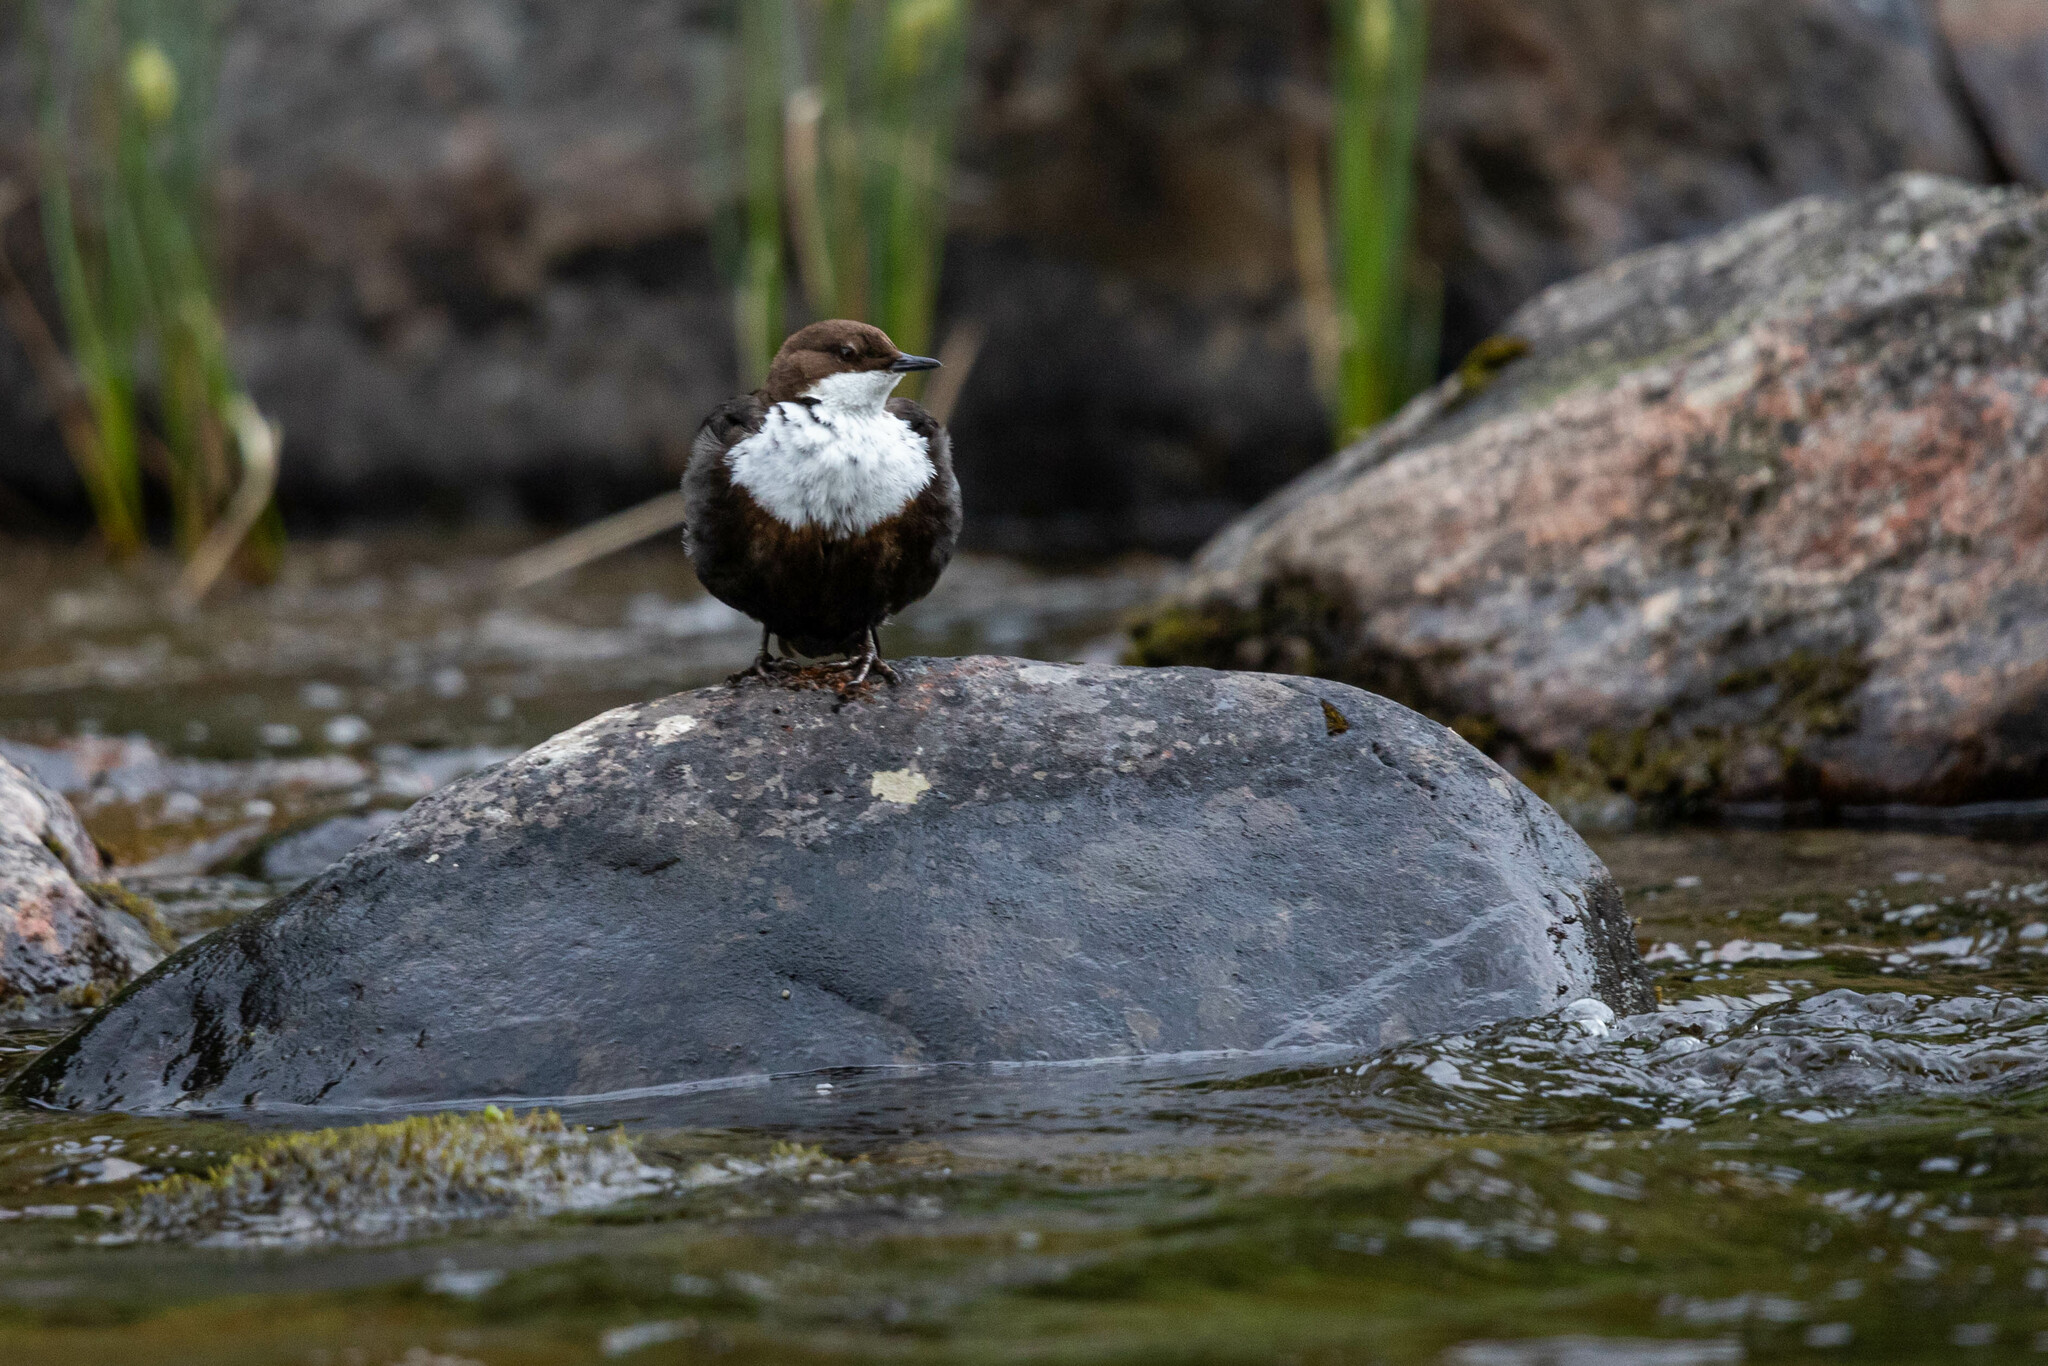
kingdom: Animalia
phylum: Chordata
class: Aves
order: Passeriformes
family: Cinclidae
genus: Cinclus
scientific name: Cinclus cinclus
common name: White-throated dipper
